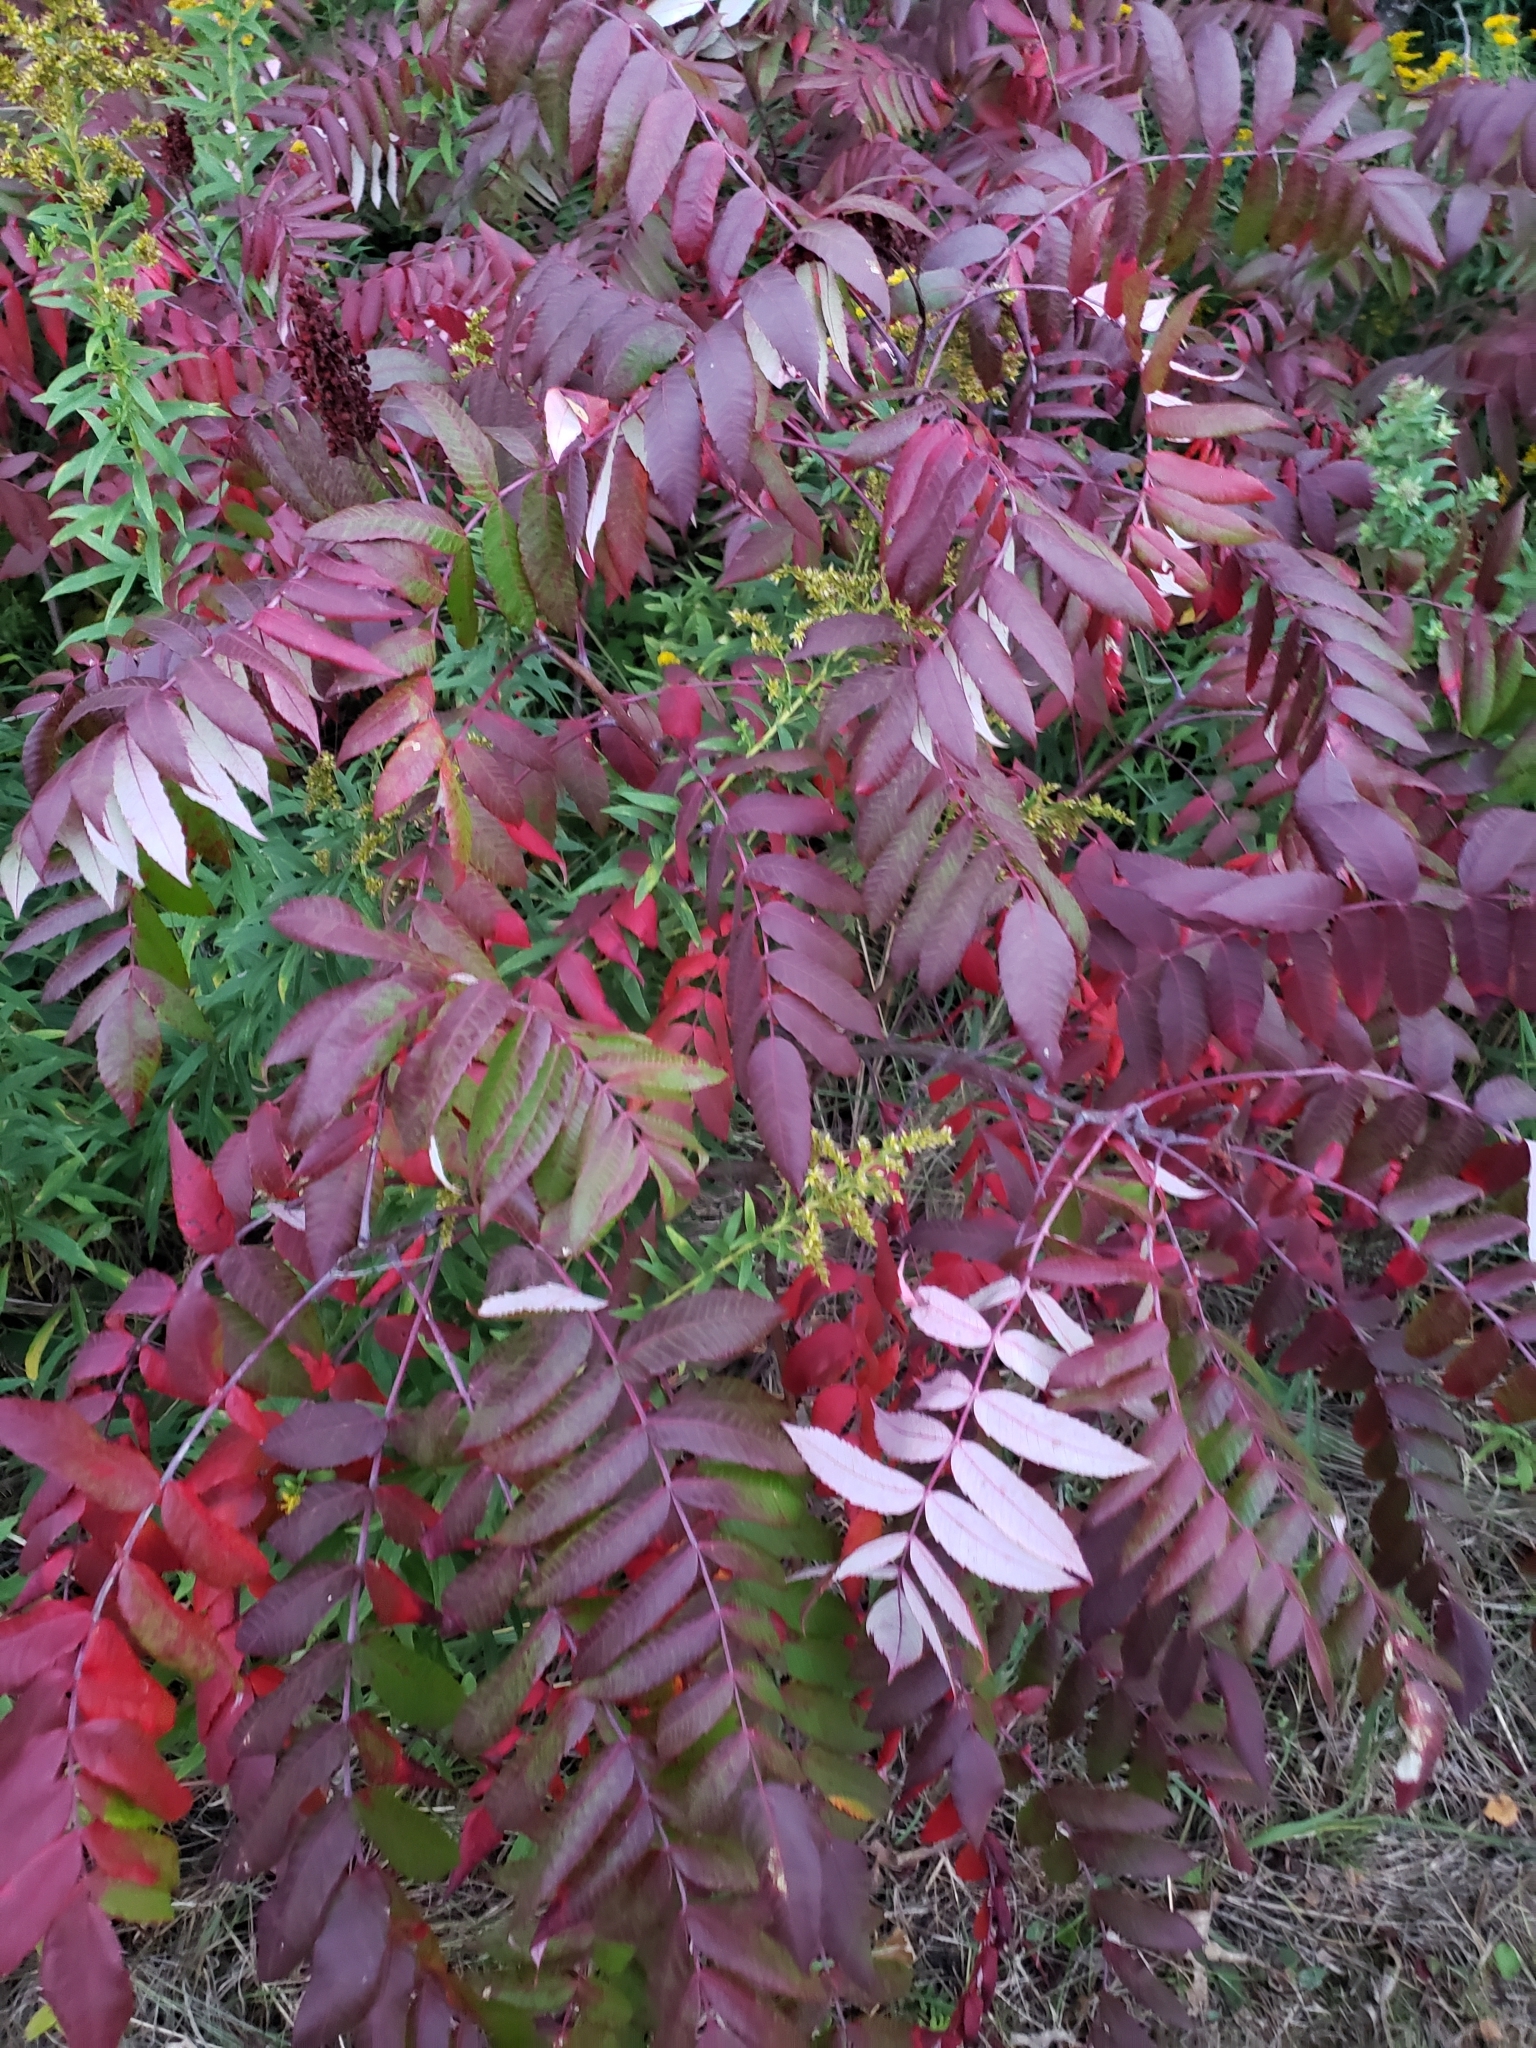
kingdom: Plantae
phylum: Tracheophyta
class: Magnoliopsida
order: Sapindales
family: Anacardiaceae
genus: Rhus
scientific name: Rhus glabra
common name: Scarlet sumac
